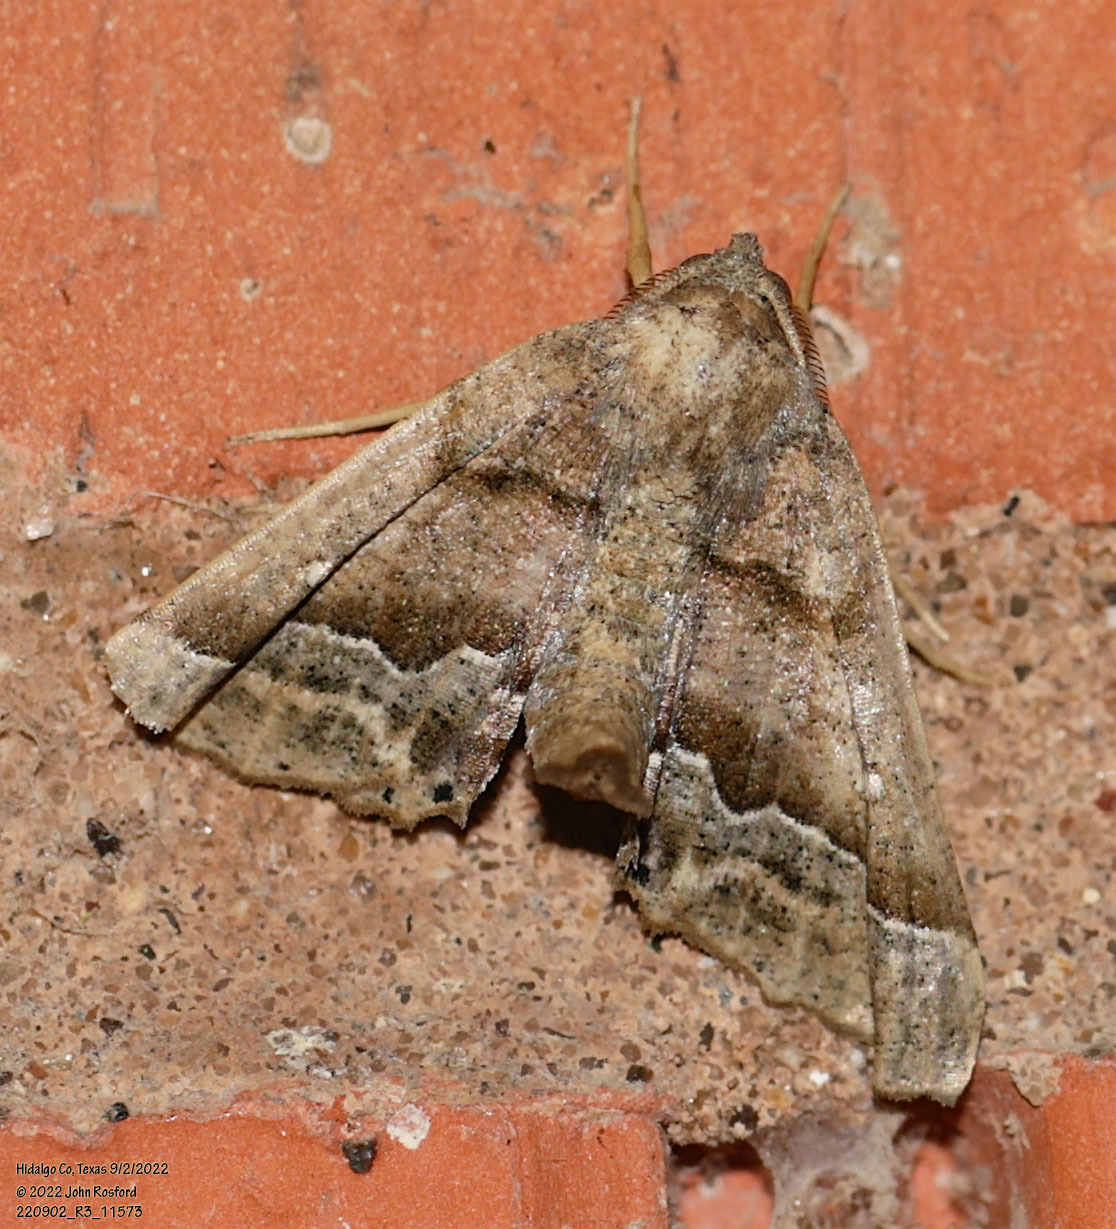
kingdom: Animalia
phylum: Arthropoda
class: Insecta
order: Lepidoptera
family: Geometridae
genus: Pero
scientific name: Pero meskaria
